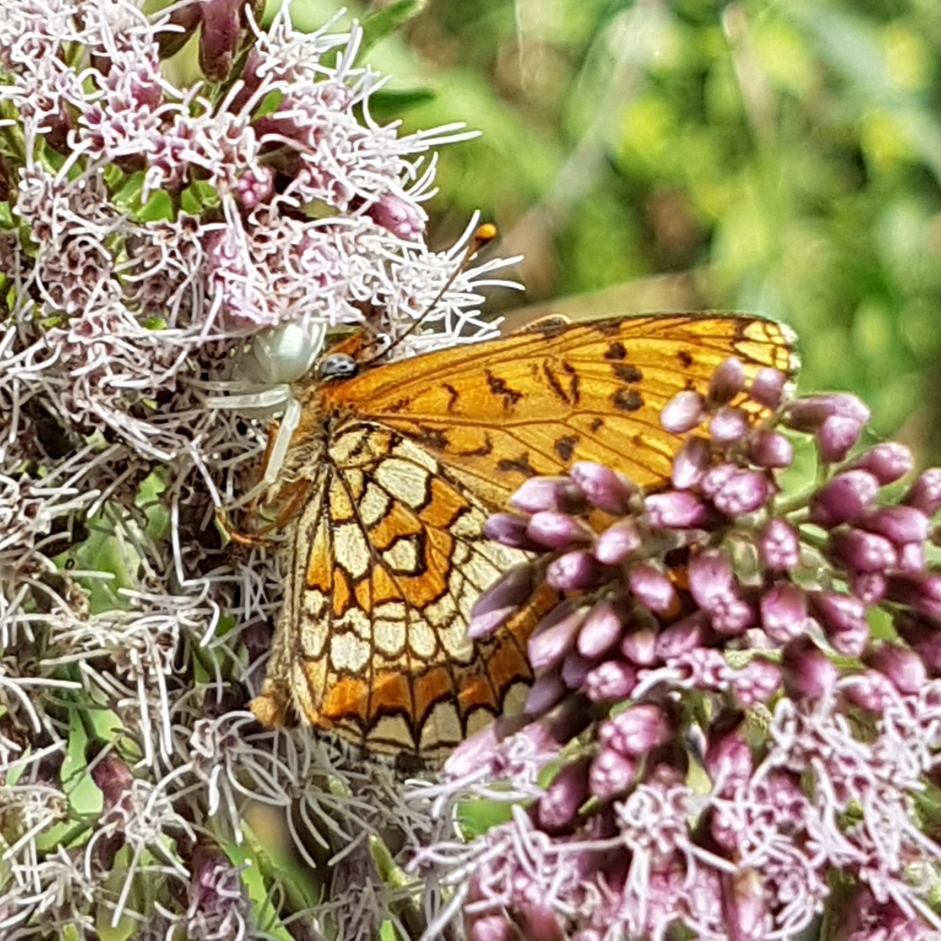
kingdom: Animalia
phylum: Arthropoda
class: Insecta
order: Lepidoptera
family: Nymphalidae
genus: Melitaea
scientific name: Melitaea deione
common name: Provençal fritillary
